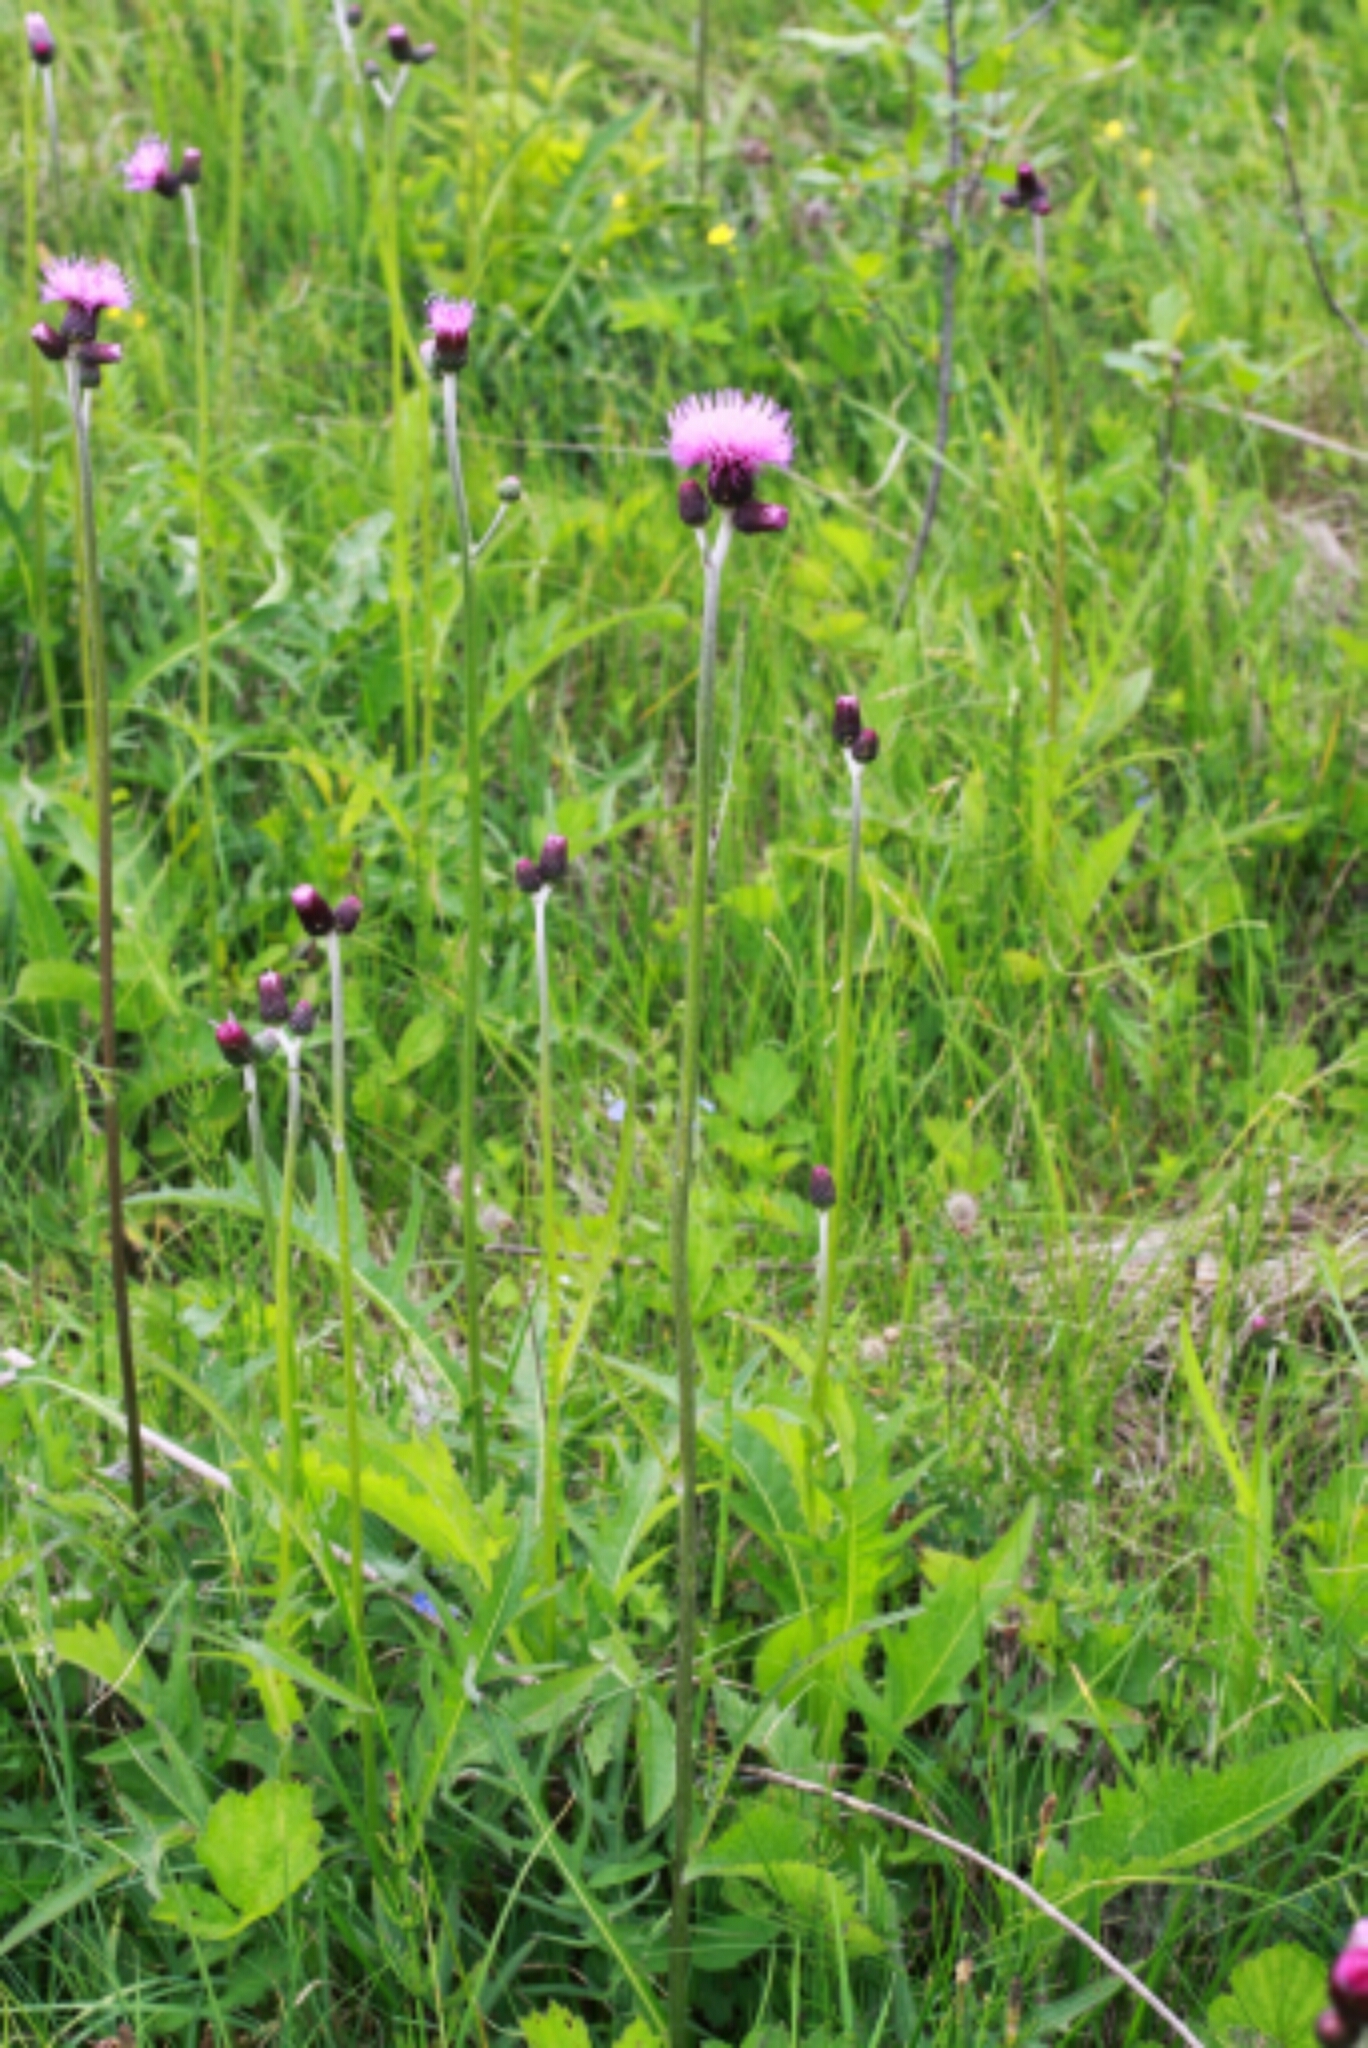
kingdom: Plantae
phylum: Tracheophyta
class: Magnoliopsida
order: Asterales
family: Asteraceae
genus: Cirsium
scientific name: Cirsium rivulare
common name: Brook thistle
